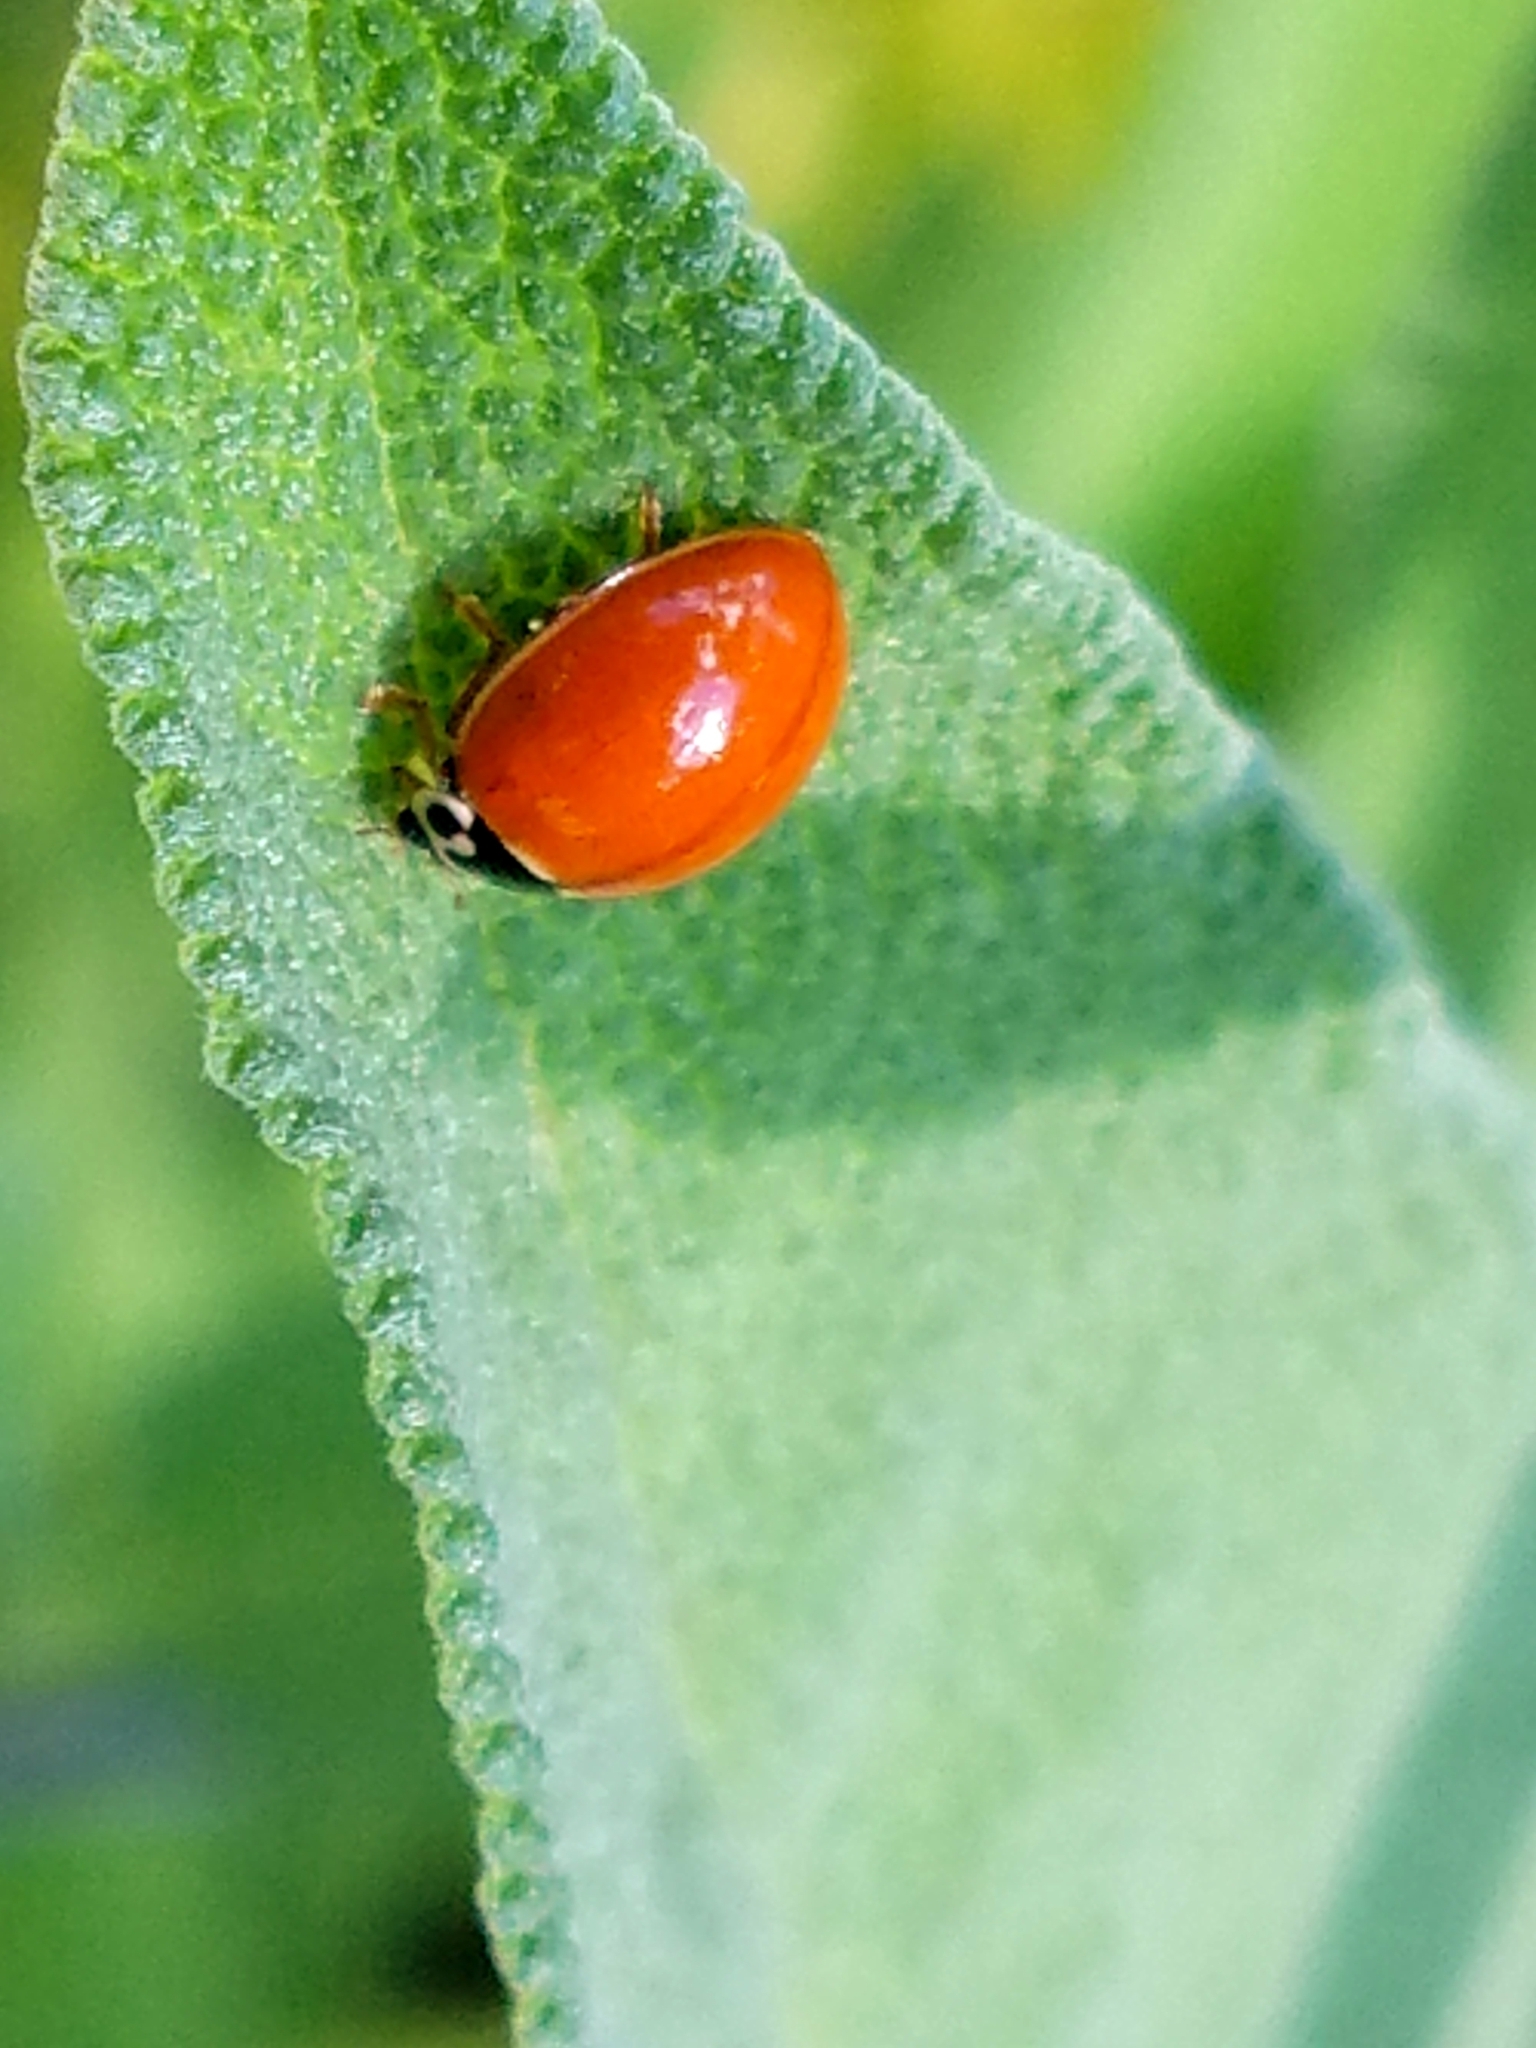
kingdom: Animalia
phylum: Arthropoda
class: Insecta
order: Coleoptera
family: Coccinellidae
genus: Cycloneda
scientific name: Cycloneda munda
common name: Polished lady beetle
